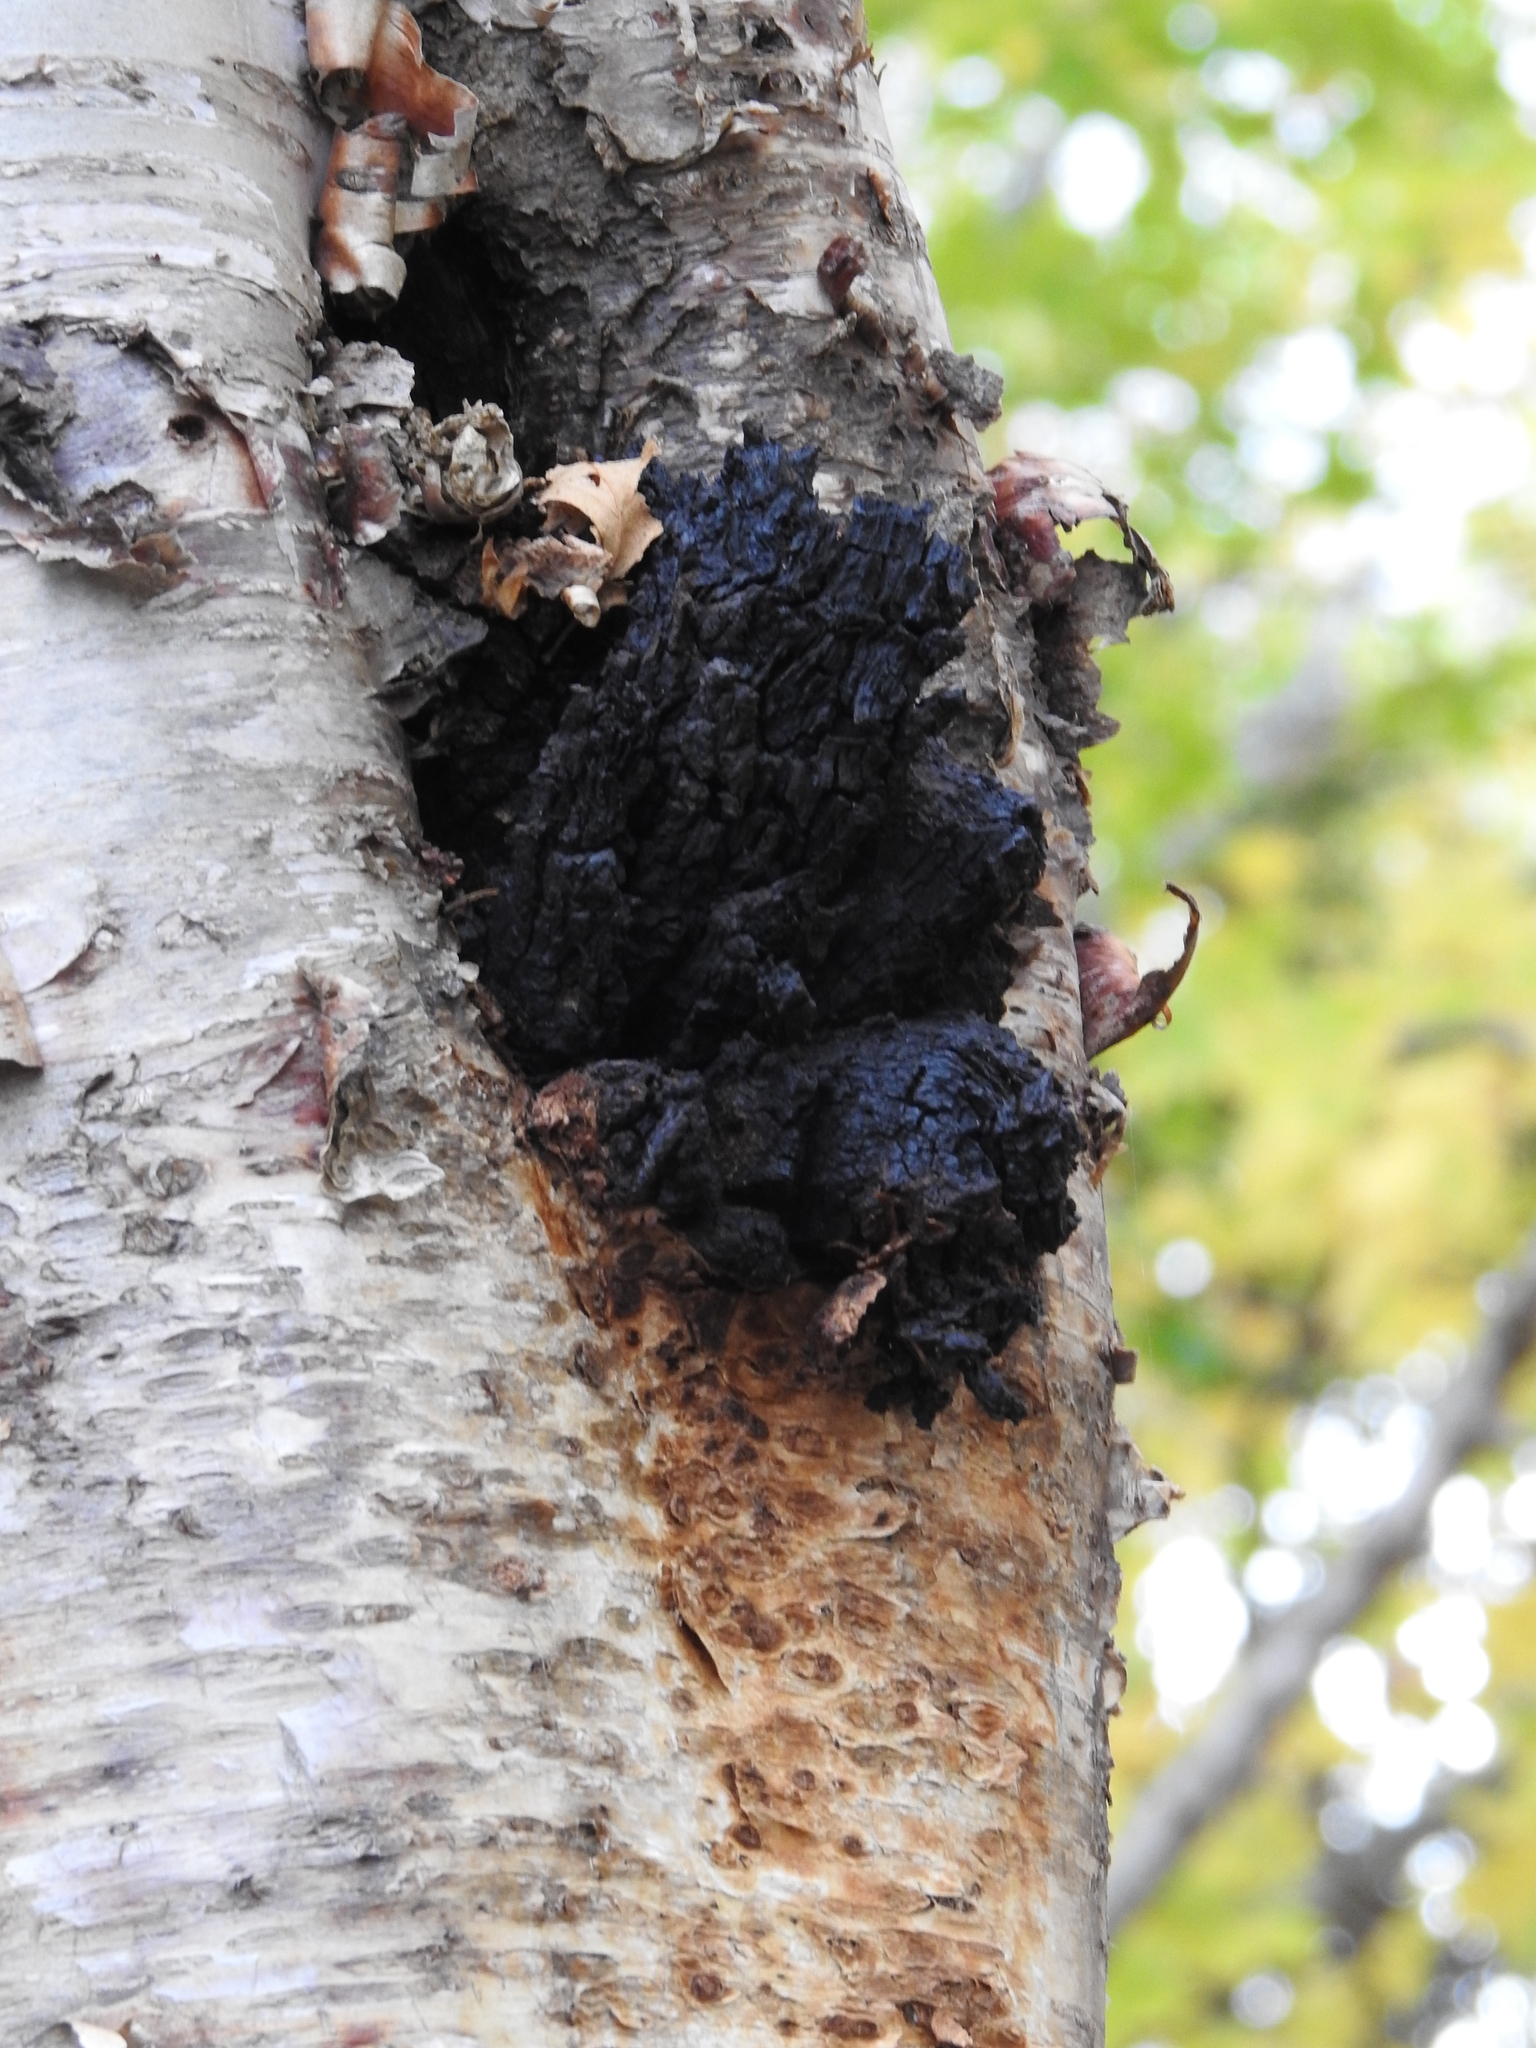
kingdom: Fungi
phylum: Basidiomycota
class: Agaricomycetes
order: Hymenochaetales
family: Hymenochaetaceae
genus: Inonotus
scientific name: Inonotus obliquus
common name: Chaga
